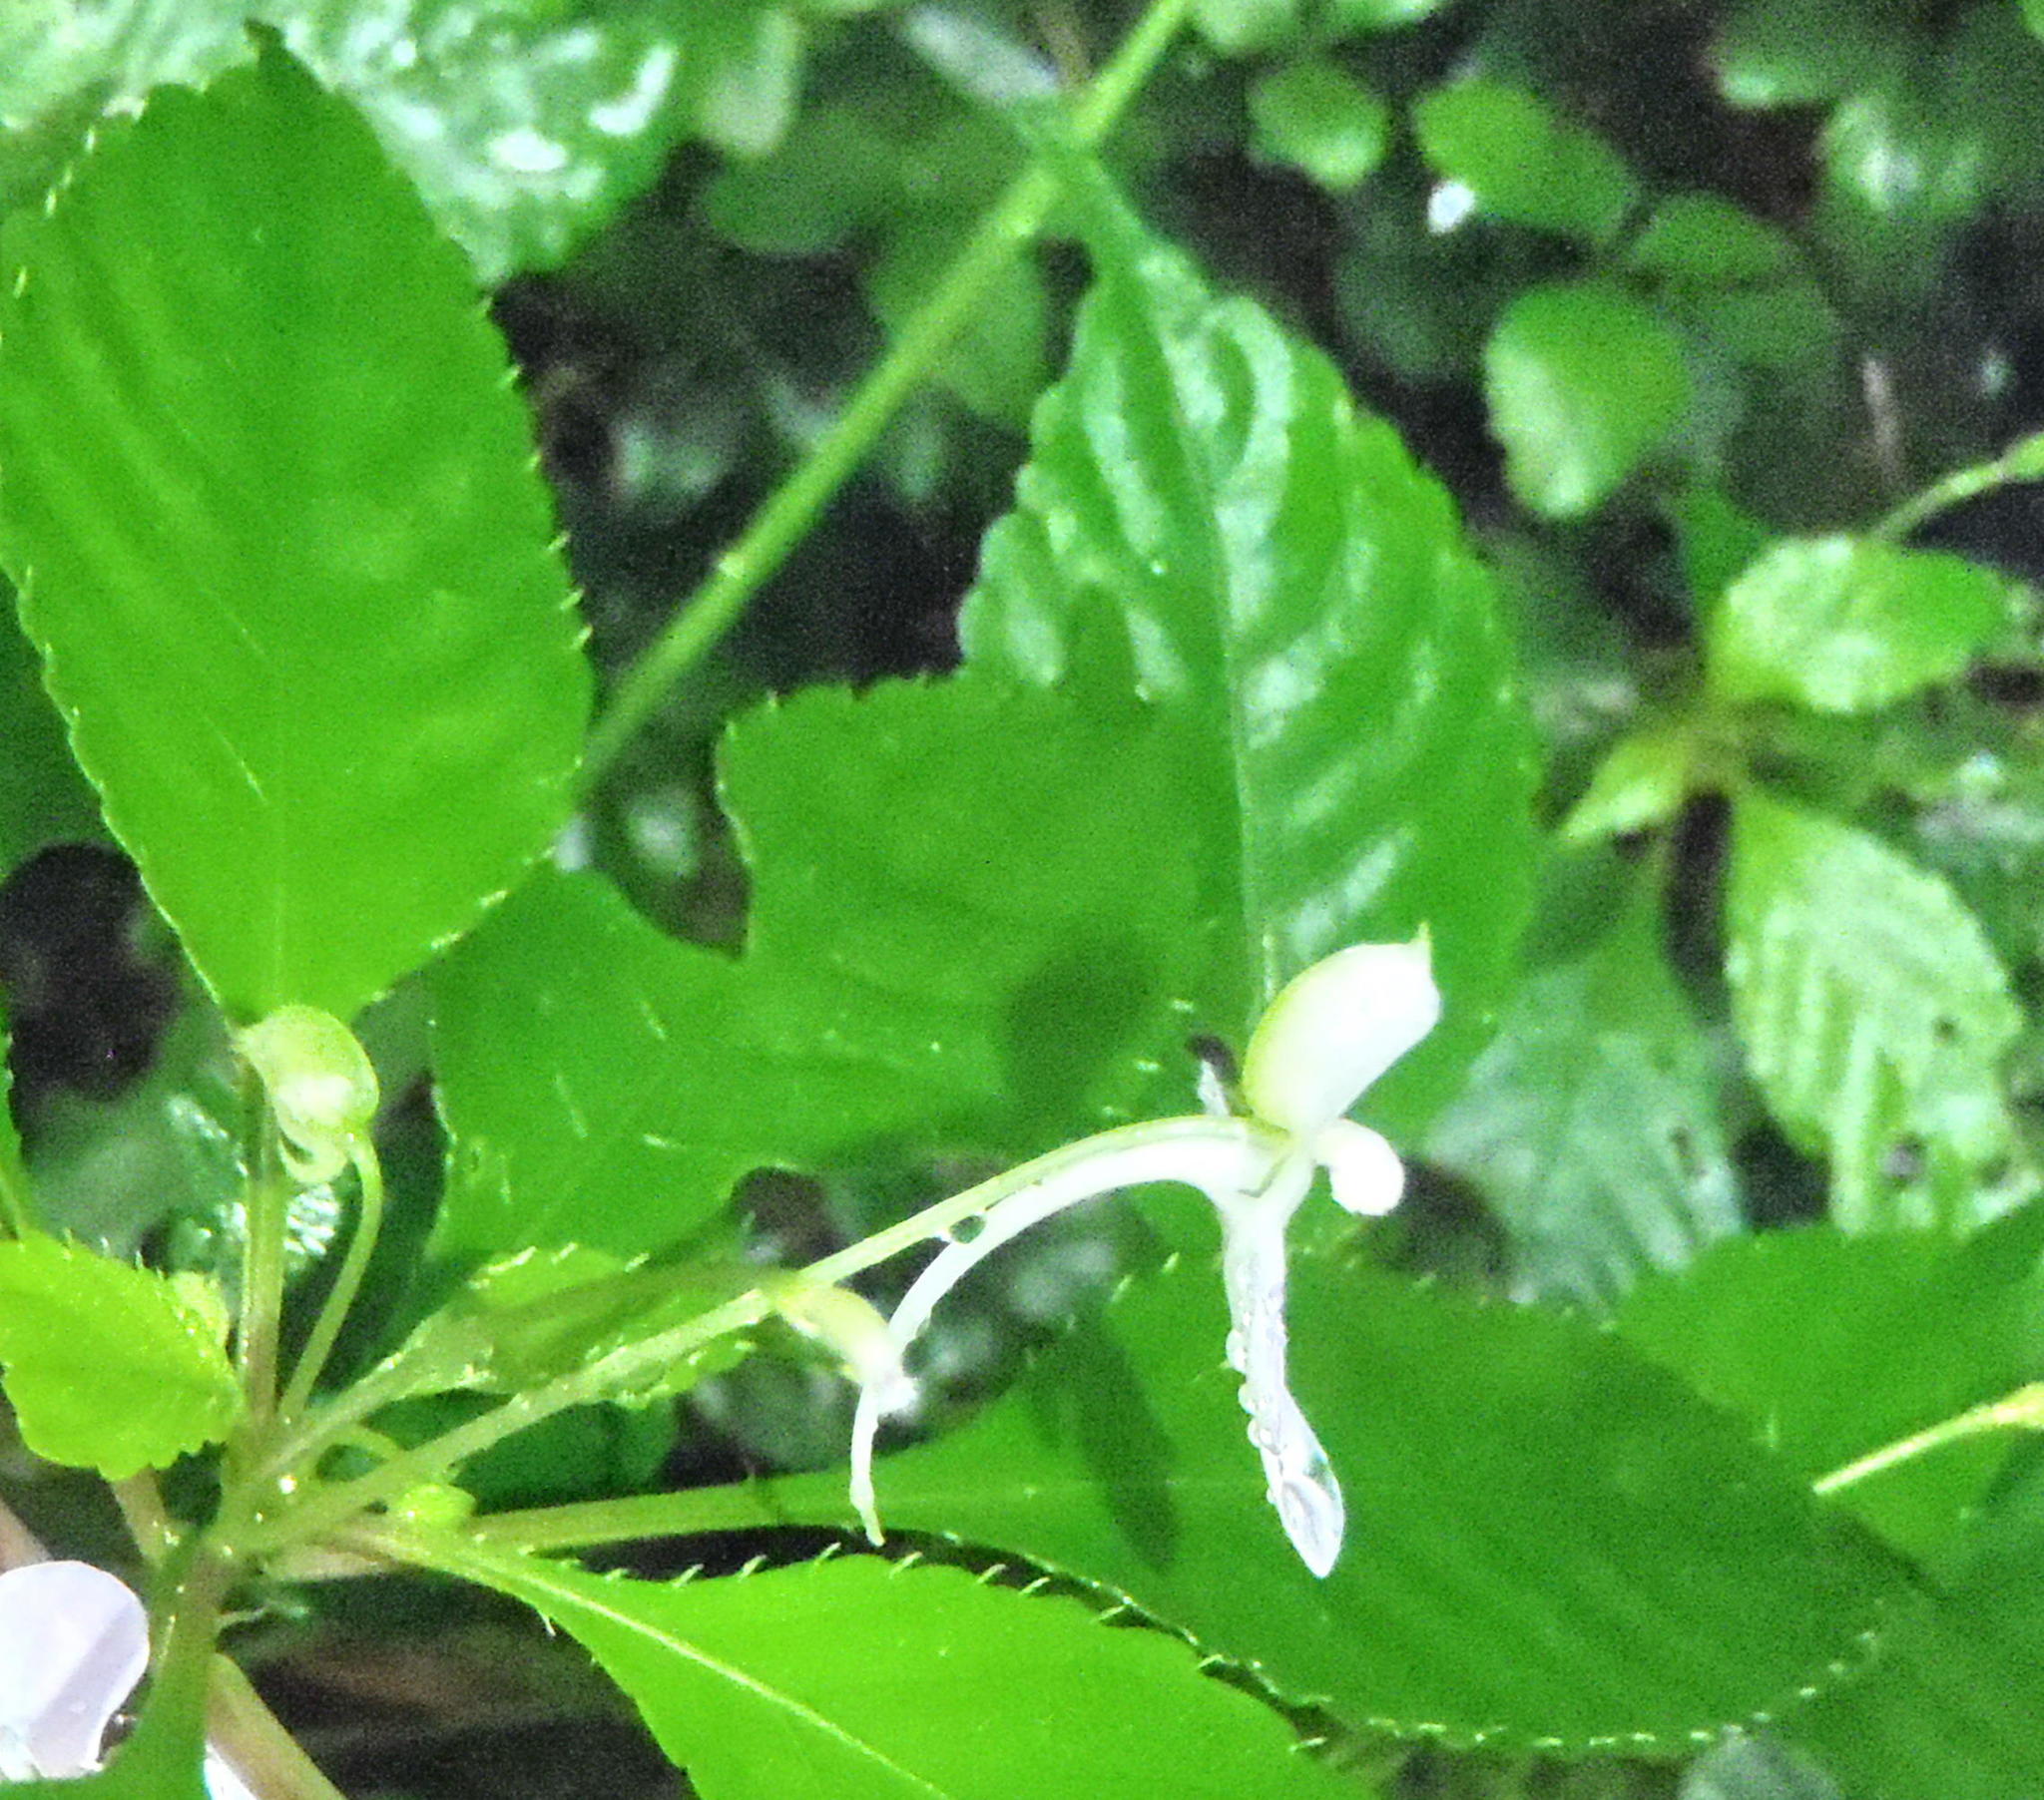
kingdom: Plantae
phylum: Tracheophyta
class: Magnoliopsida
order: Ericales
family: Balsaminaceae
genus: Impatiens
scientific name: Impatiens hochstetteri
